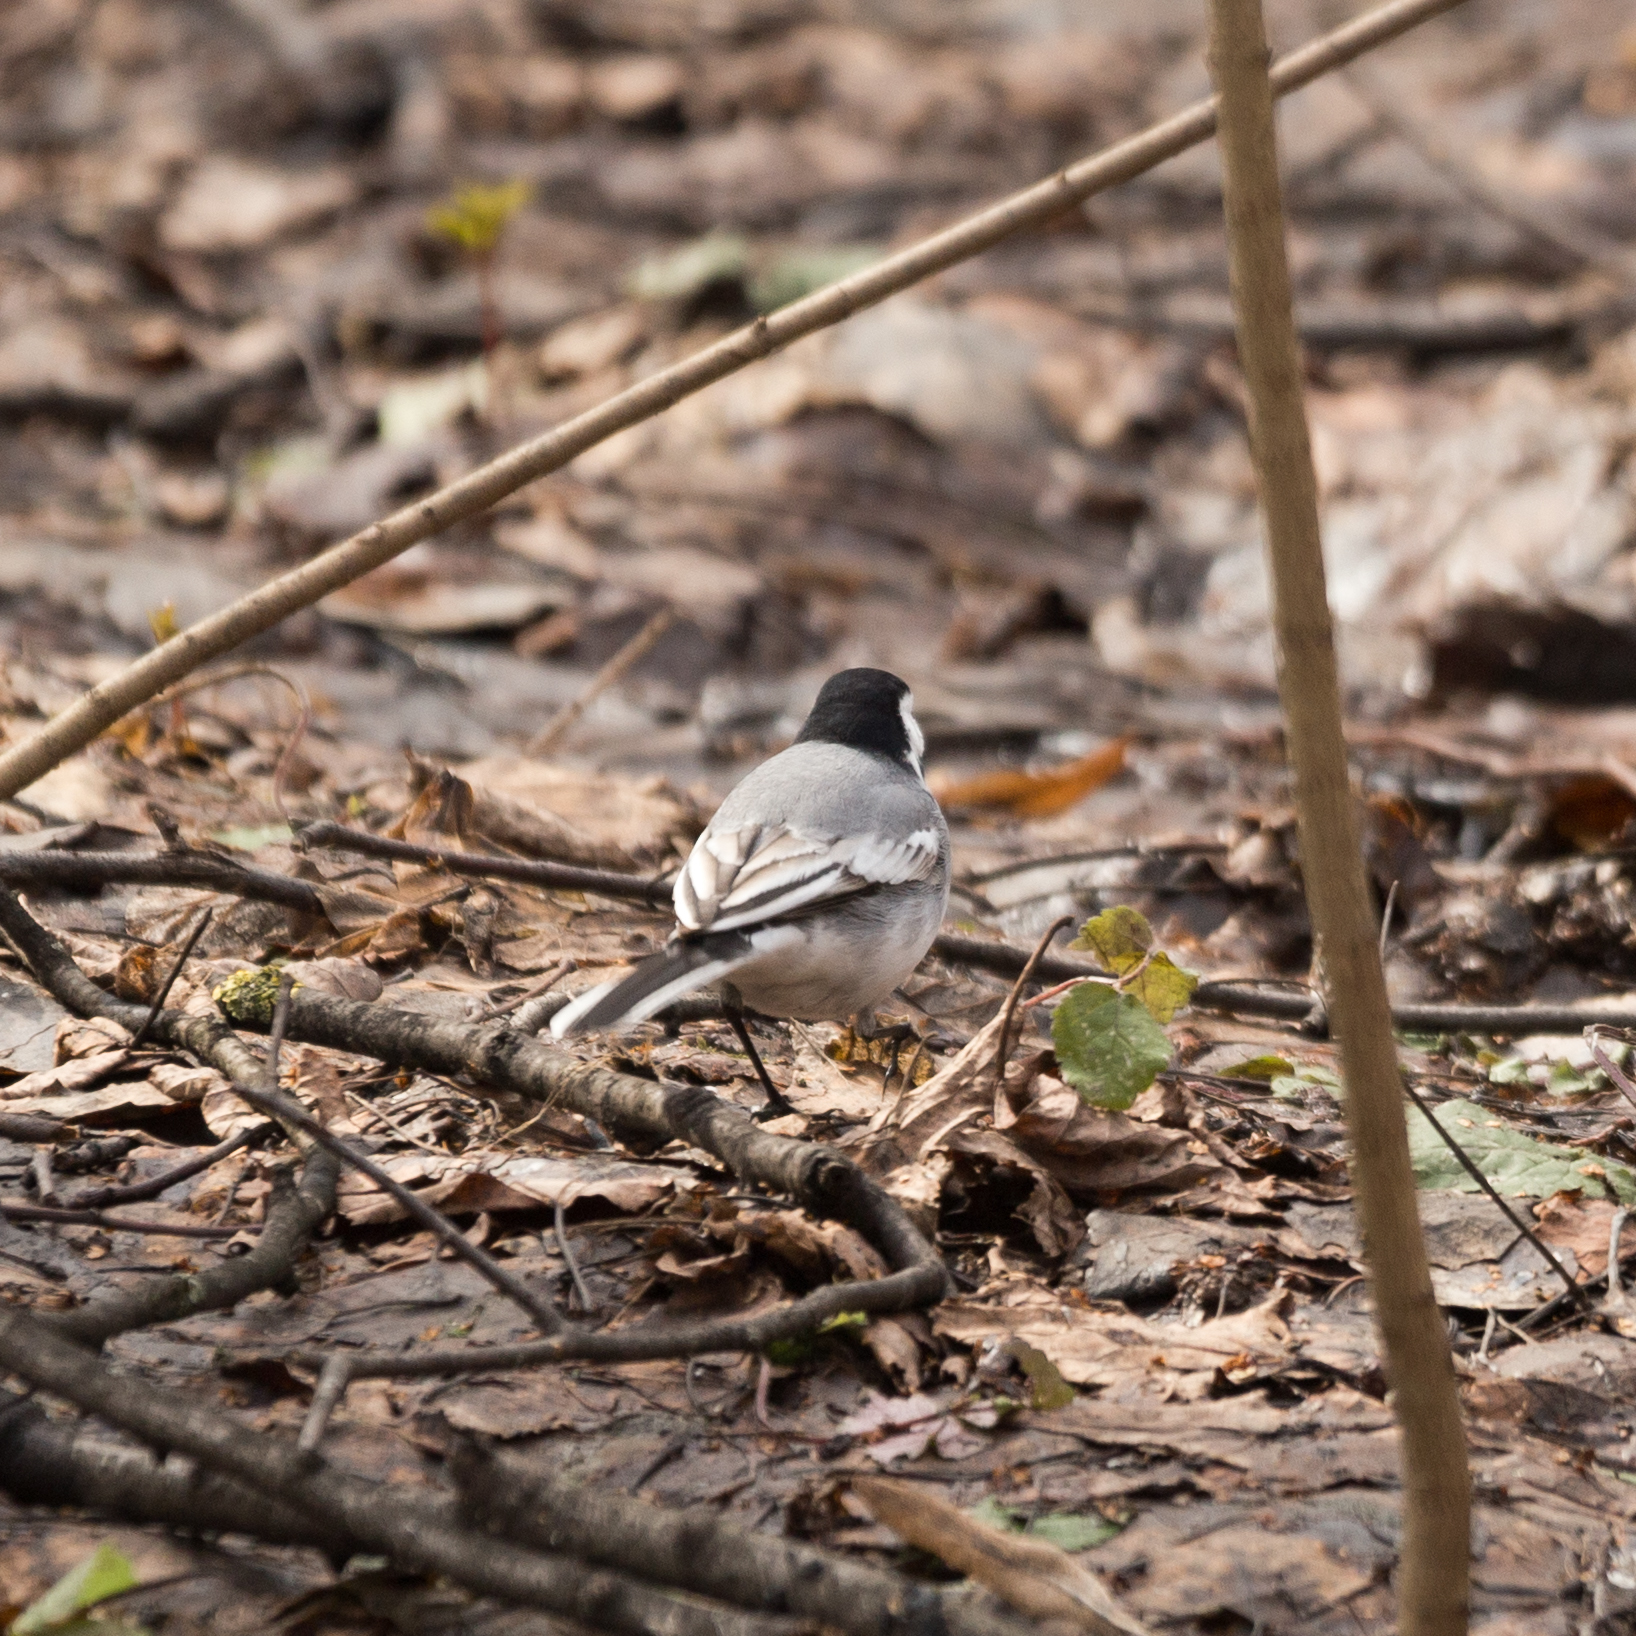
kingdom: Animalia
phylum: Chordata
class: Aves
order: Passeriformes
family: Motacillidae
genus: Motacilla
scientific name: Motacilla alba
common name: White wagtail
